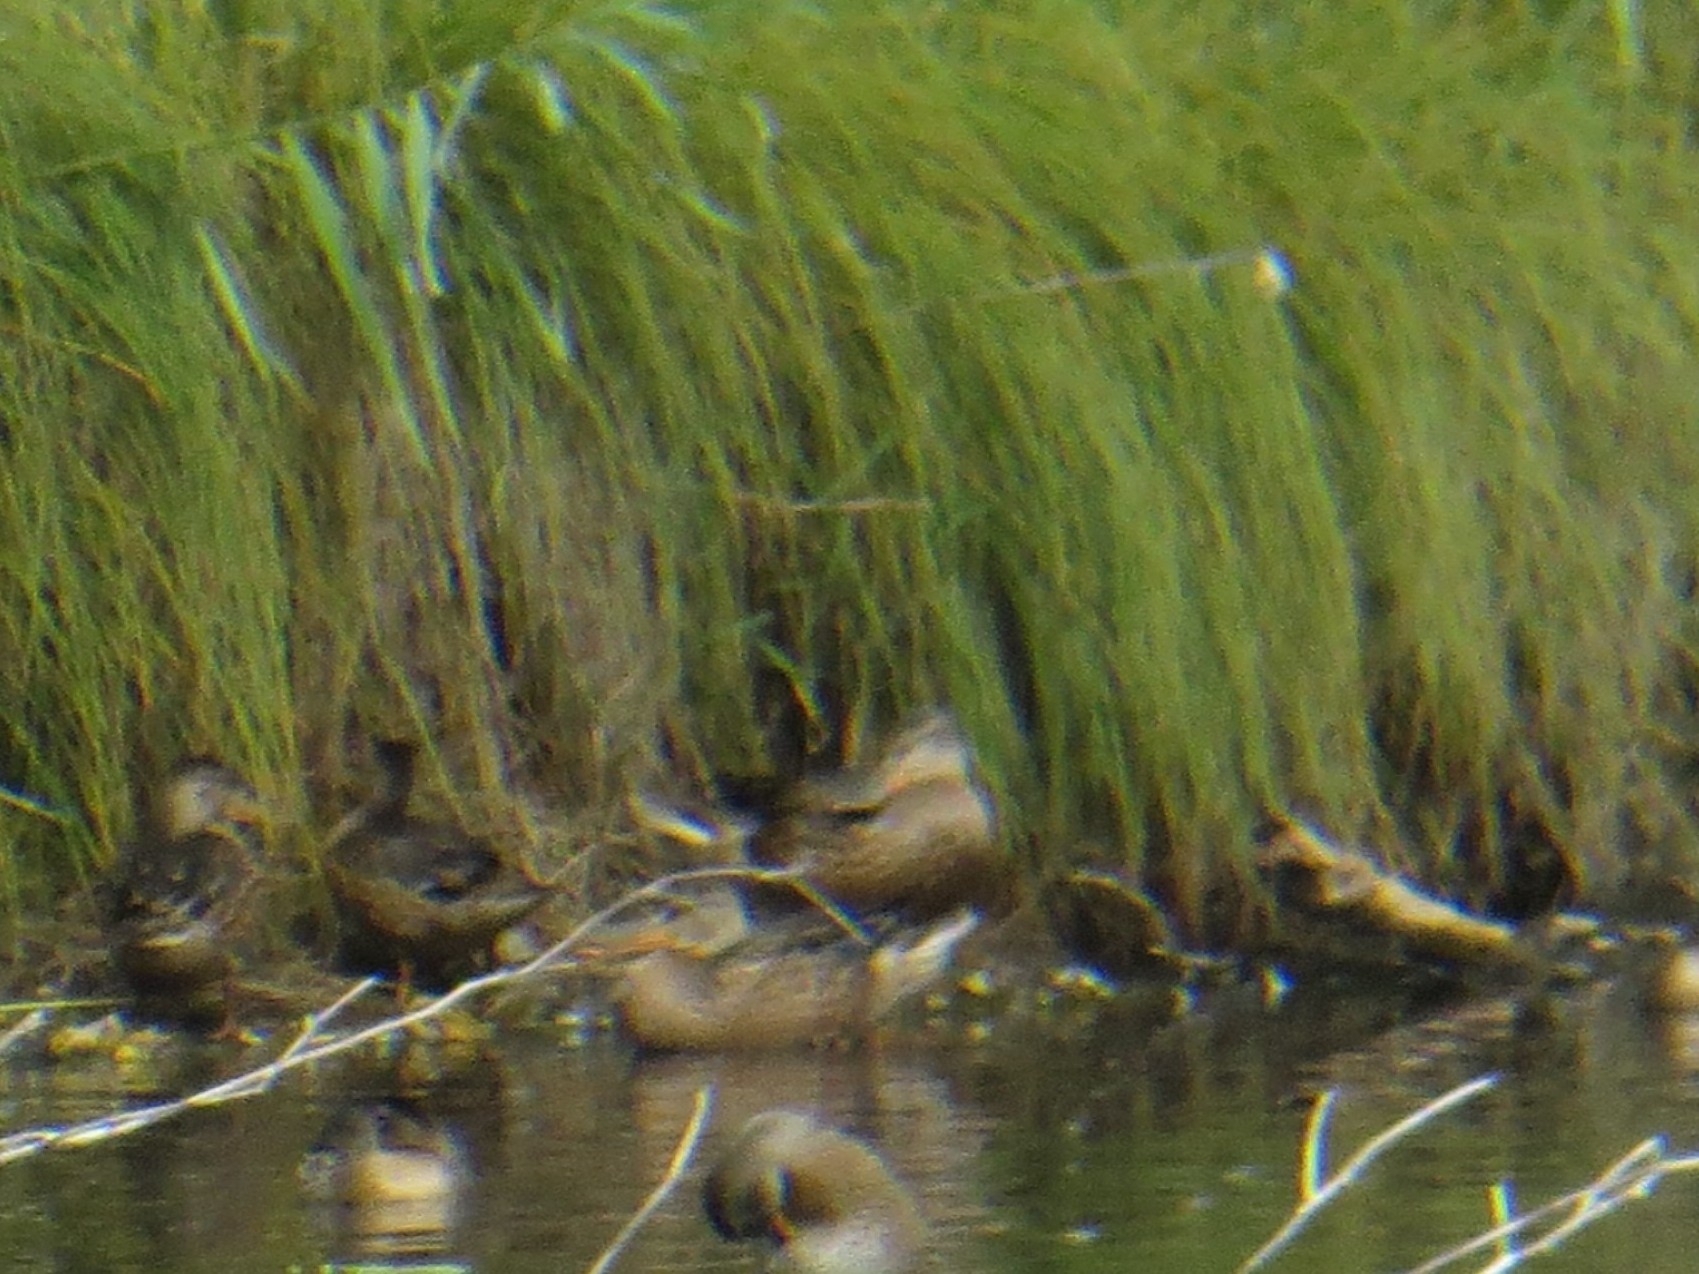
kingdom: Animalia
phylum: Chordata
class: Aves
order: Anseriformes
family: Anatidae
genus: Spatula
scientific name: Spatula clypeata
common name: Northern shoveler
